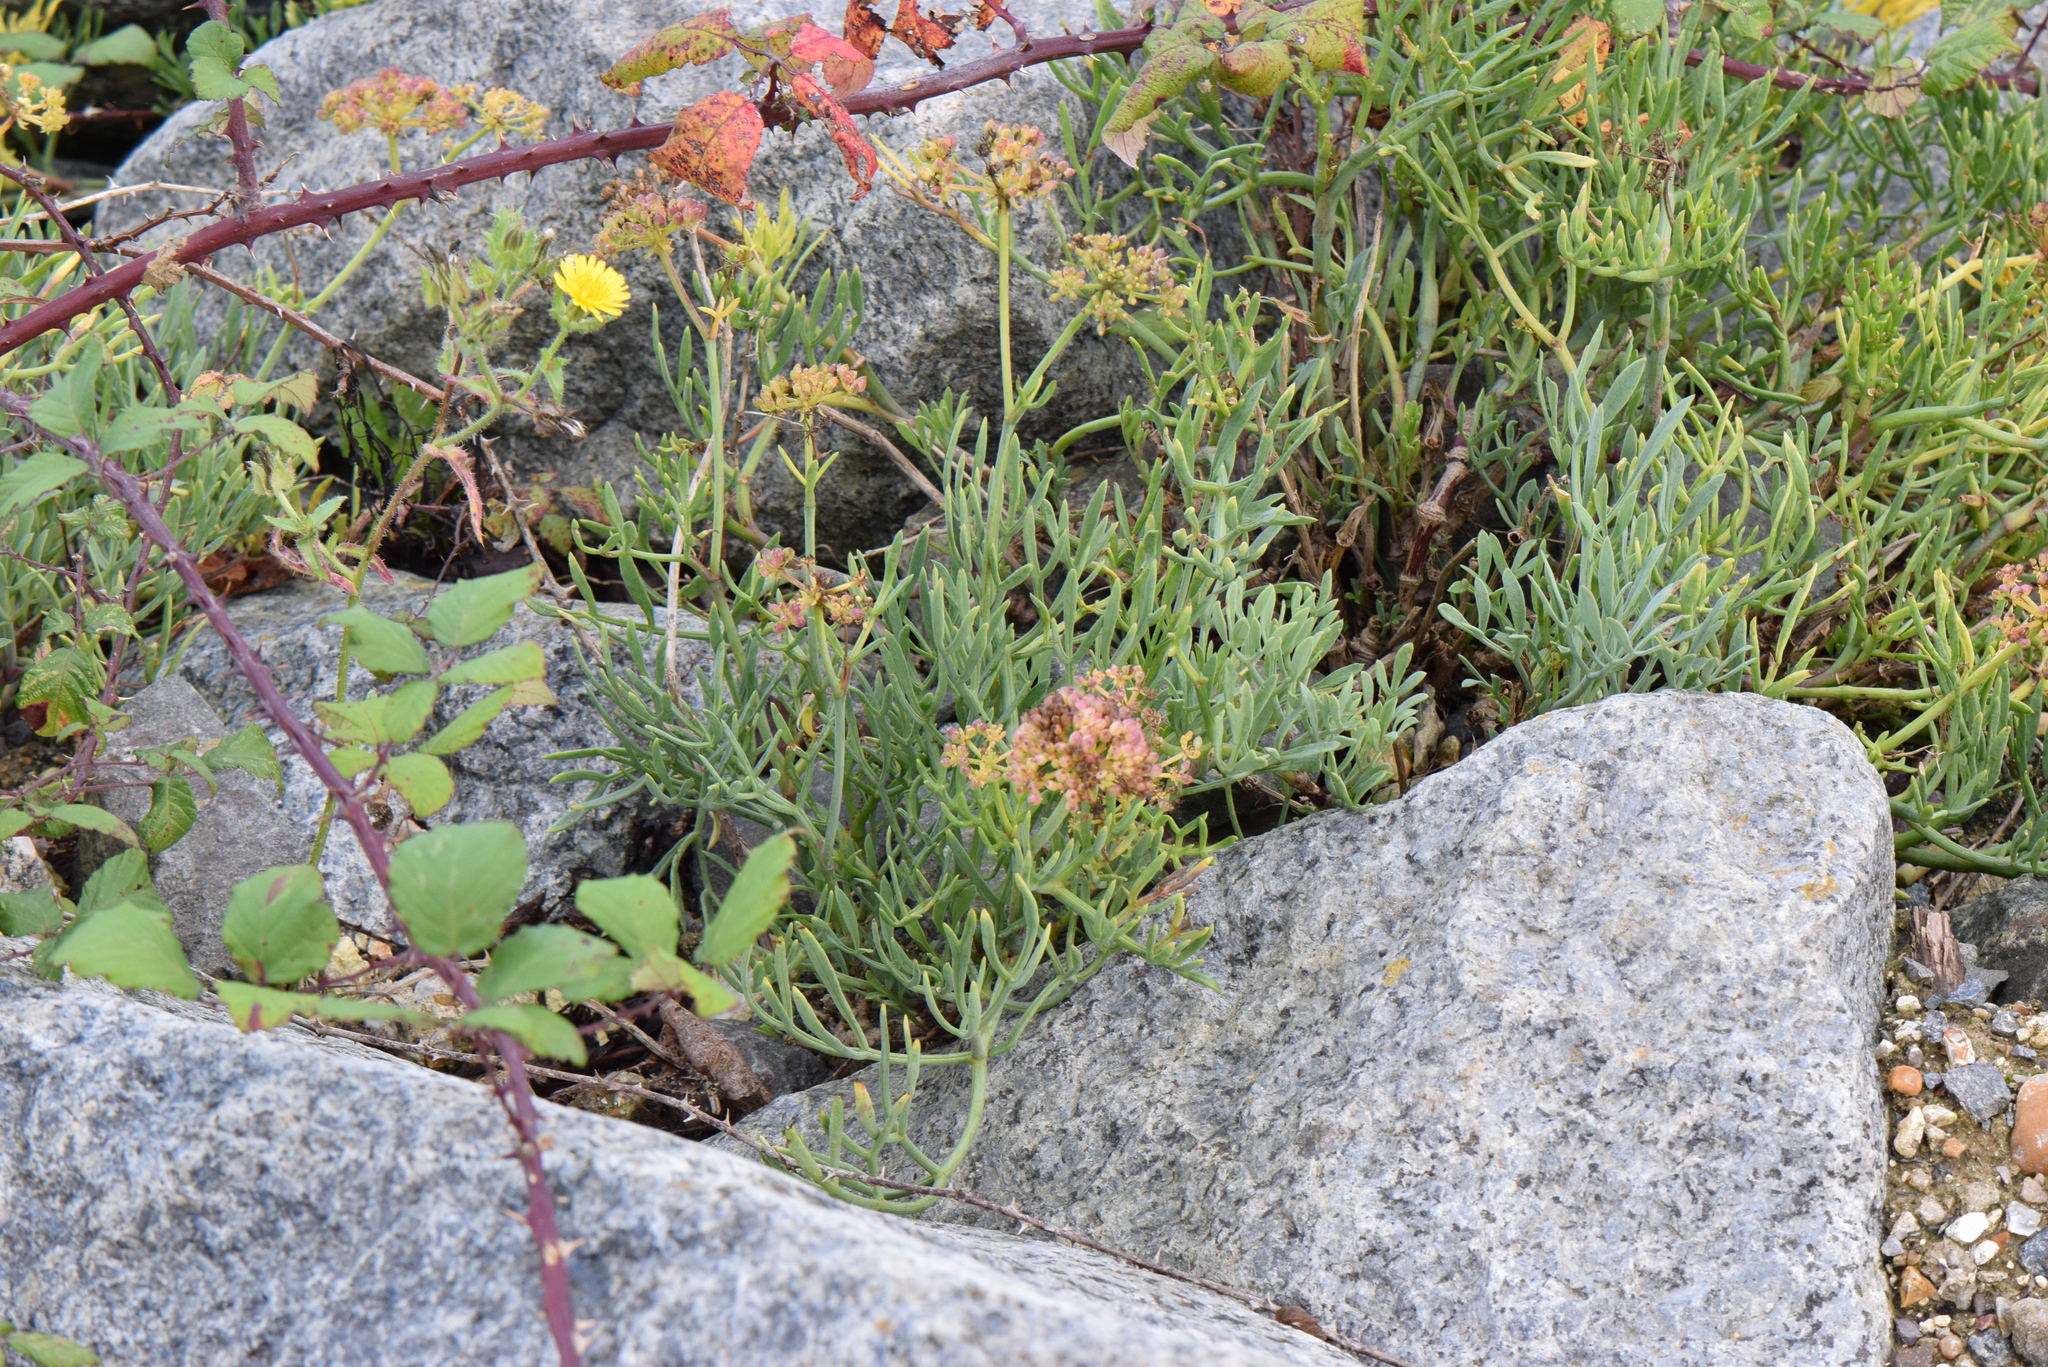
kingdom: Plantae
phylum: Tracheophyta
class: Magnoliopsida
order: Apiales
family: Apiaceae
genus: Crithmum
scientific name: Crithmum maritimum
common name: Rock samphire
